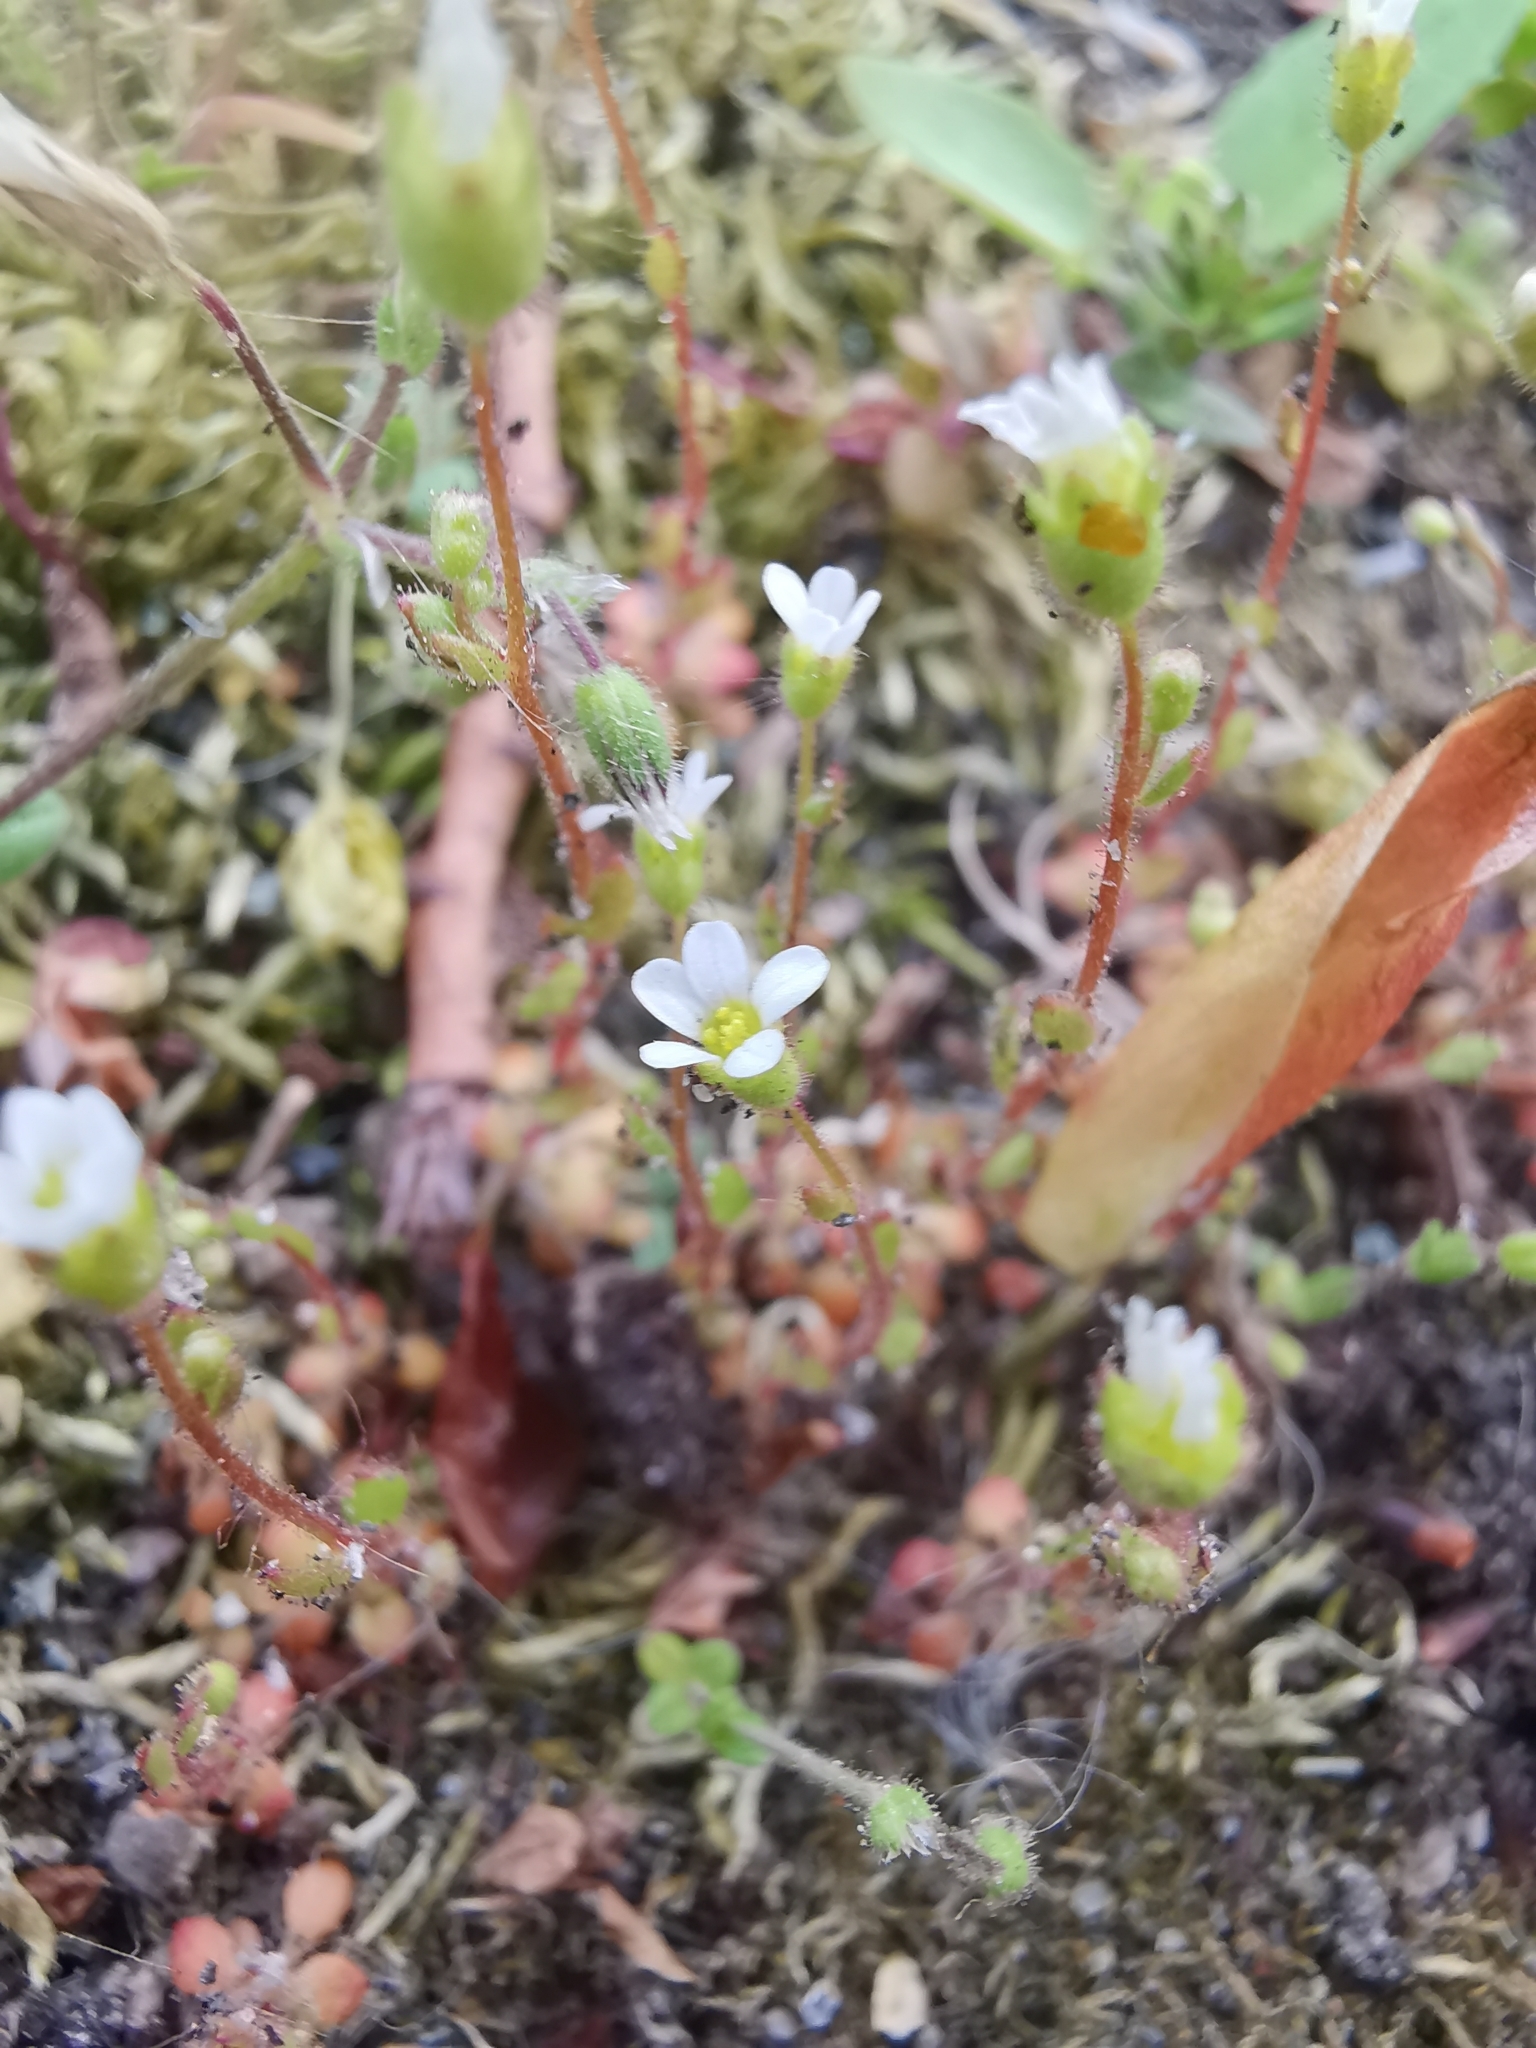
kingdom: Plantae
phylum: Tracheophyta
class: Magnoliopsida
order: Saxifragales
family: Saxifragaceae
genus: Saxifraga
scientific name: Saxifraga tridactylites
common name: Rue-leaved saxifrage
